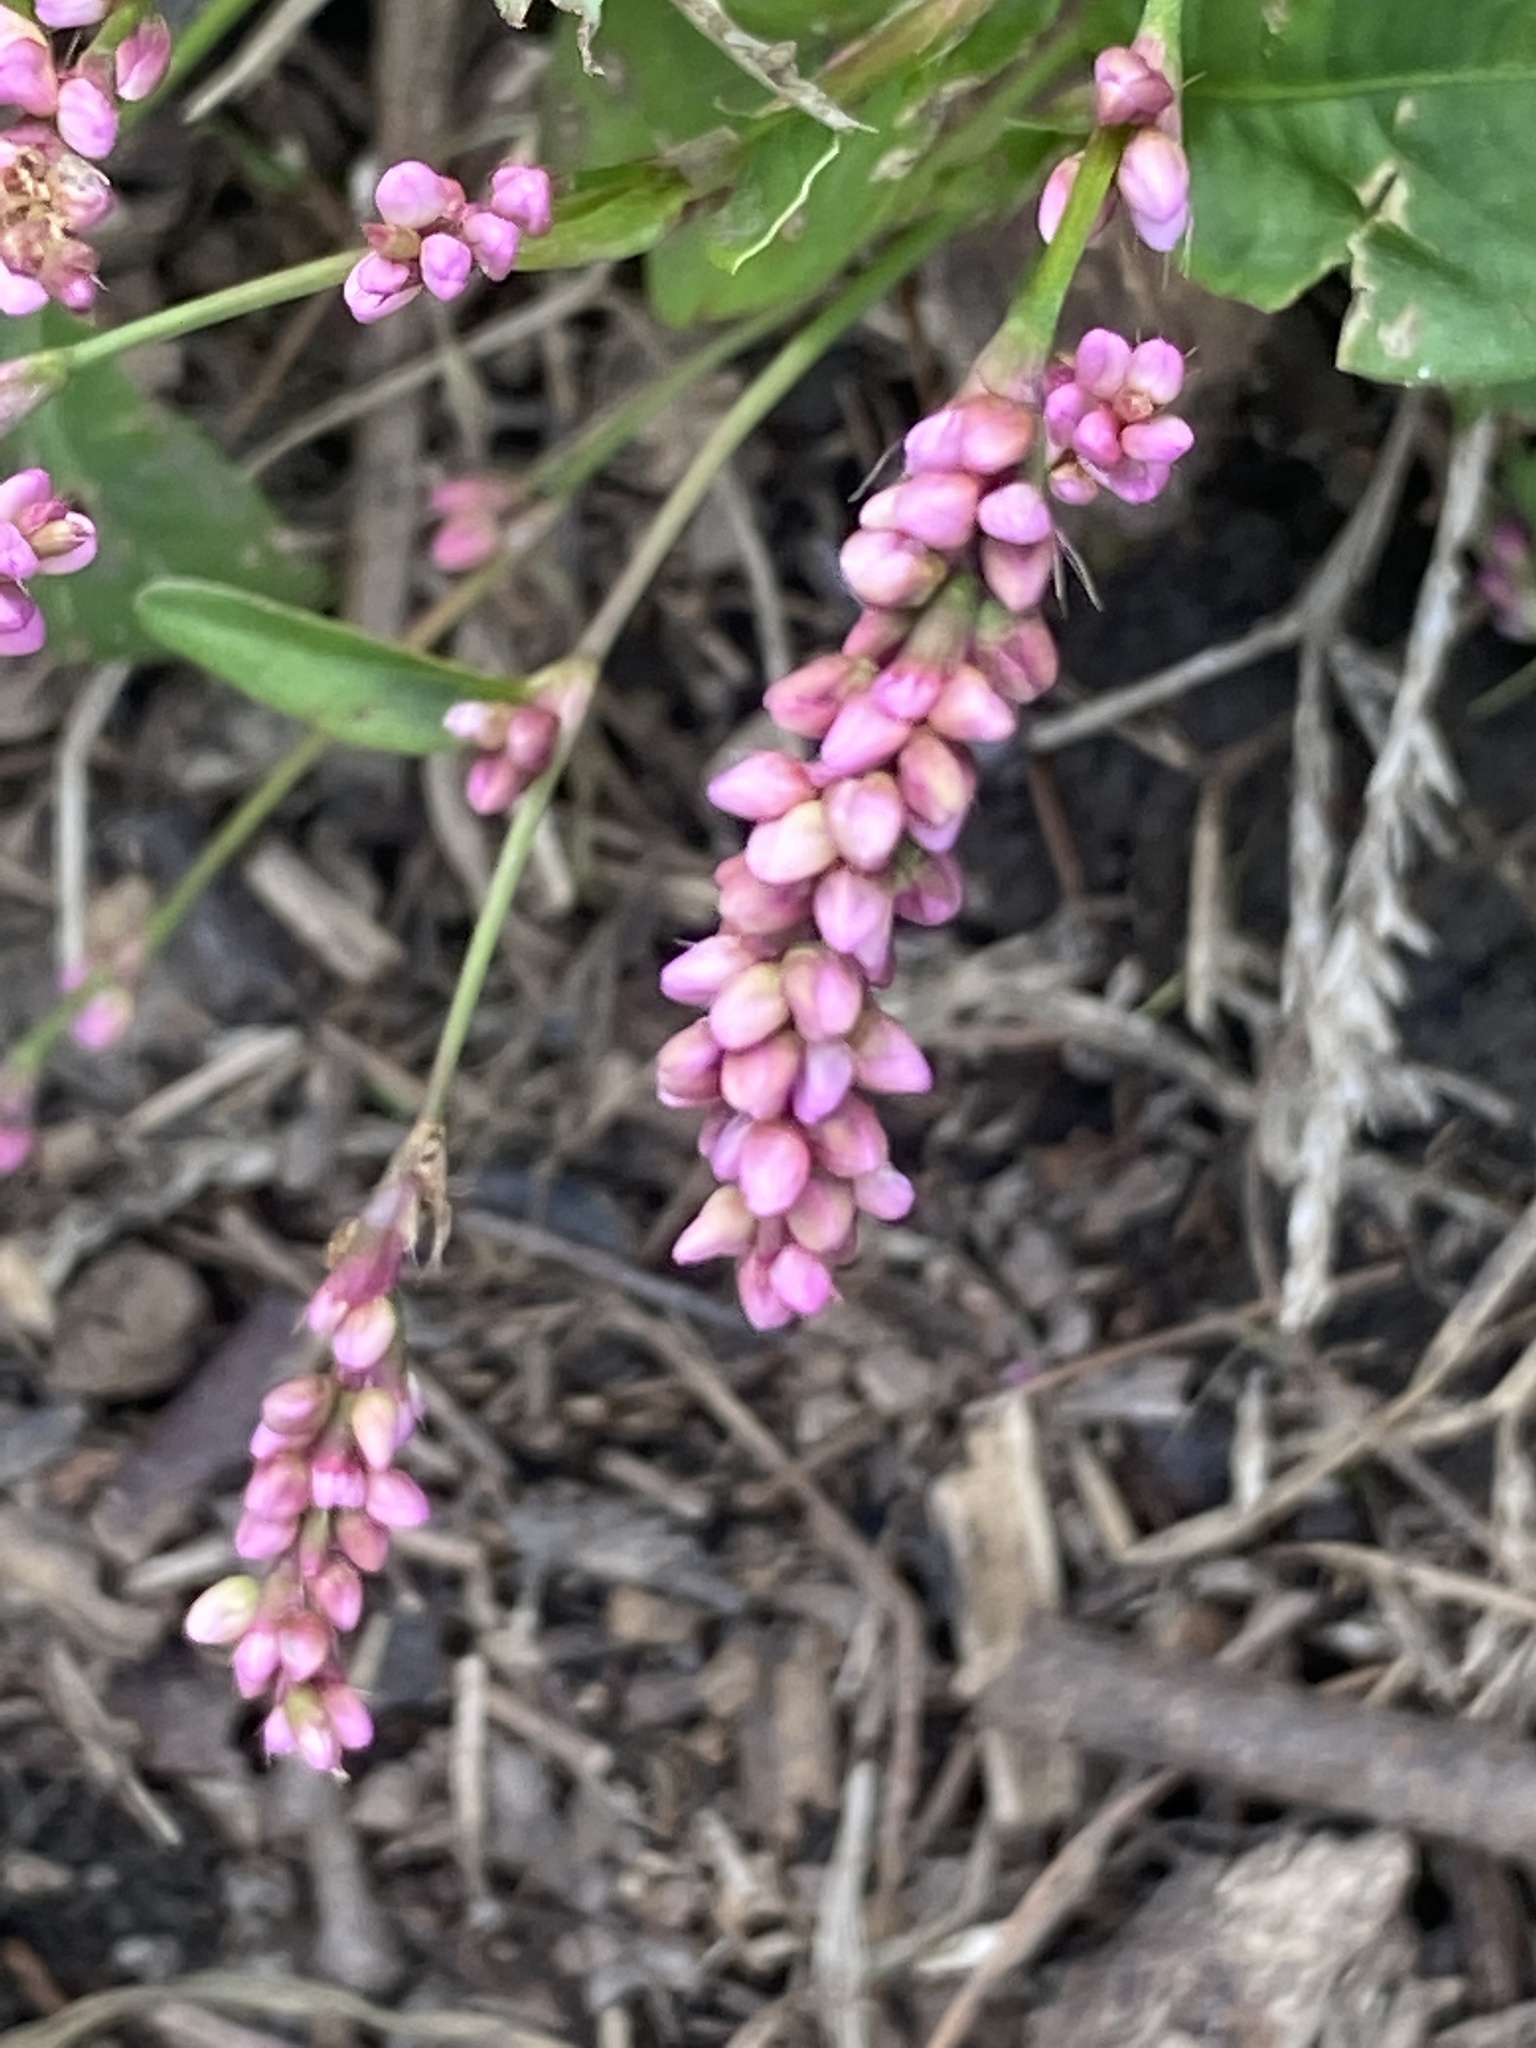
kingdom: Plantae
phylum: Tracheophyta
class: Magnoliopsida
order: Caryophyllales
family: Polygonaceae
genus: Persicaria
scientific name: Persicaria longiseta
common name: Bristly lady's-thumb
